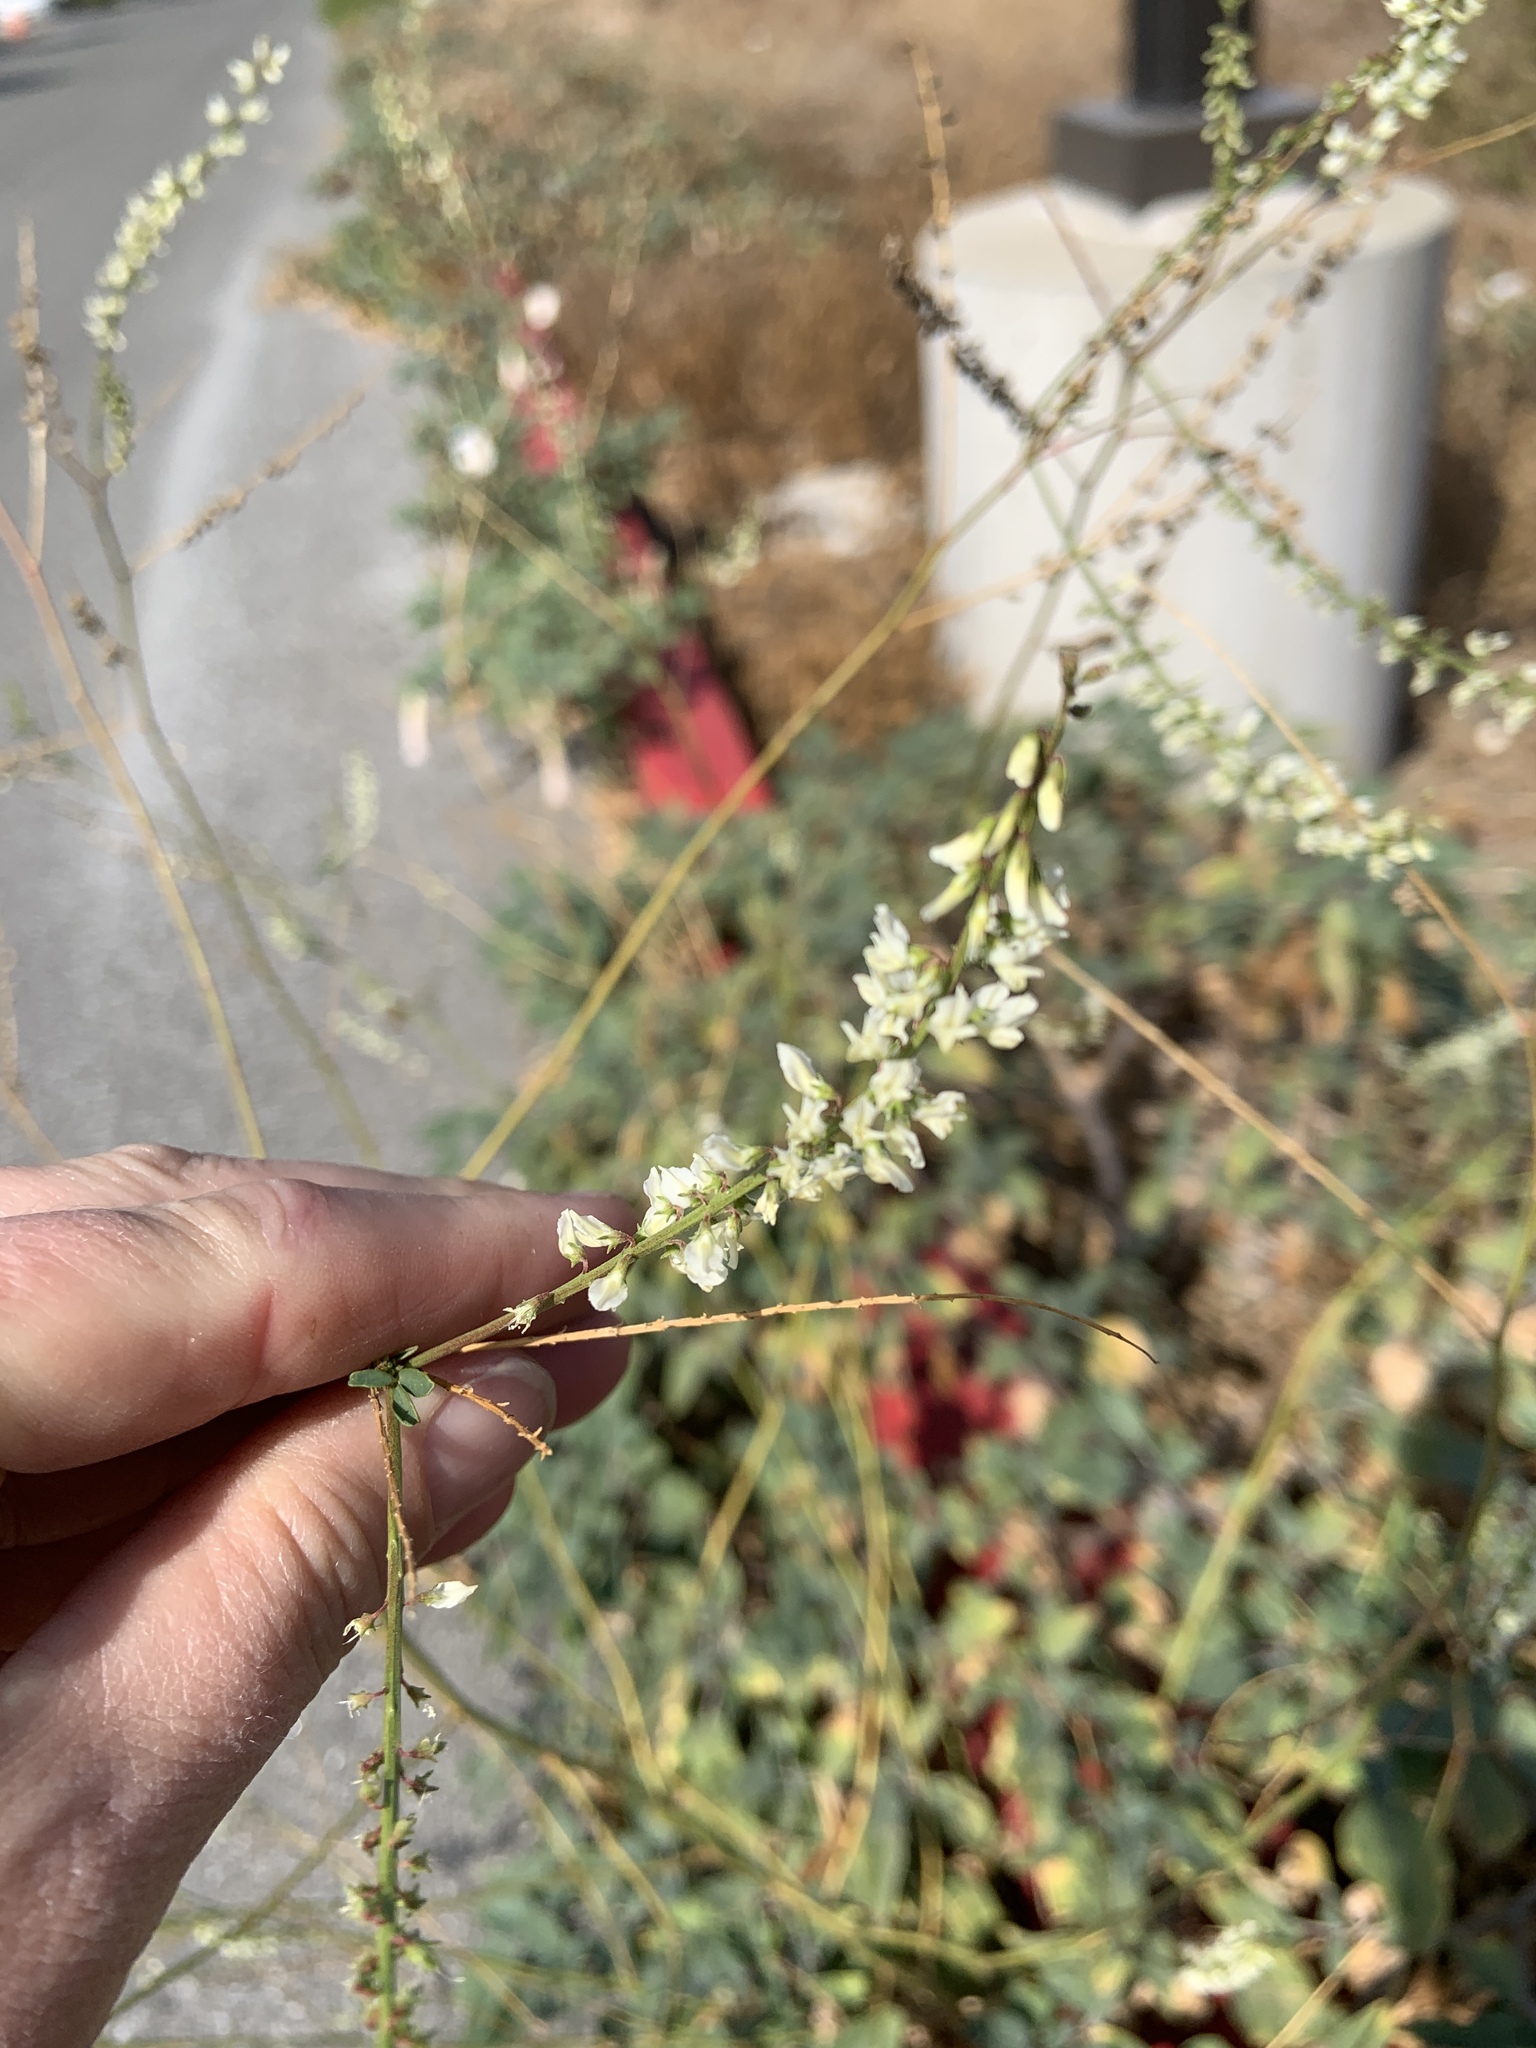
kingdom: Plantae
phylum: Tracheophyta
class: Magnoliopsida
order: Fabales
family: Fabaceae
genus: Melilotus
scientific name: Melilotus albus
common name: White melilot
